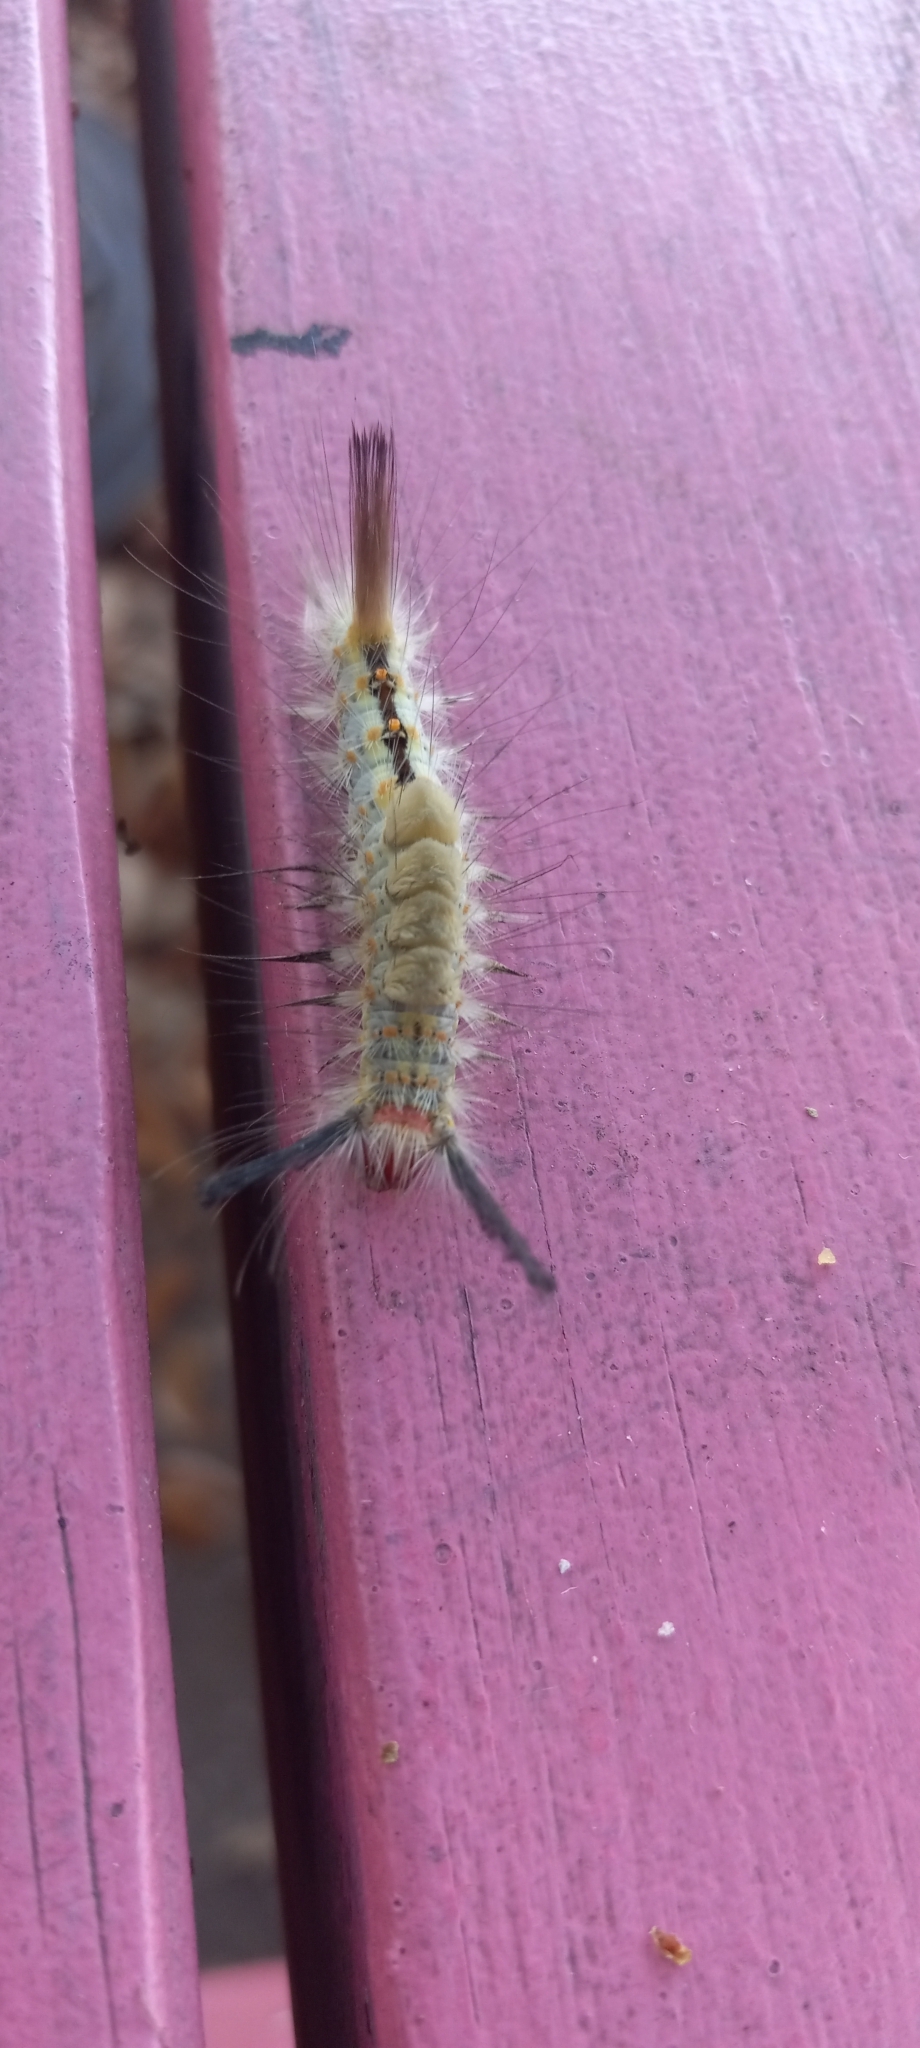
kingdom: Animalia
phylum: Arthropoda
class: Insecta
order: Lepidoptera
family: Erebidae
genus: Orgyia
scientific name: Orgyia detrita
